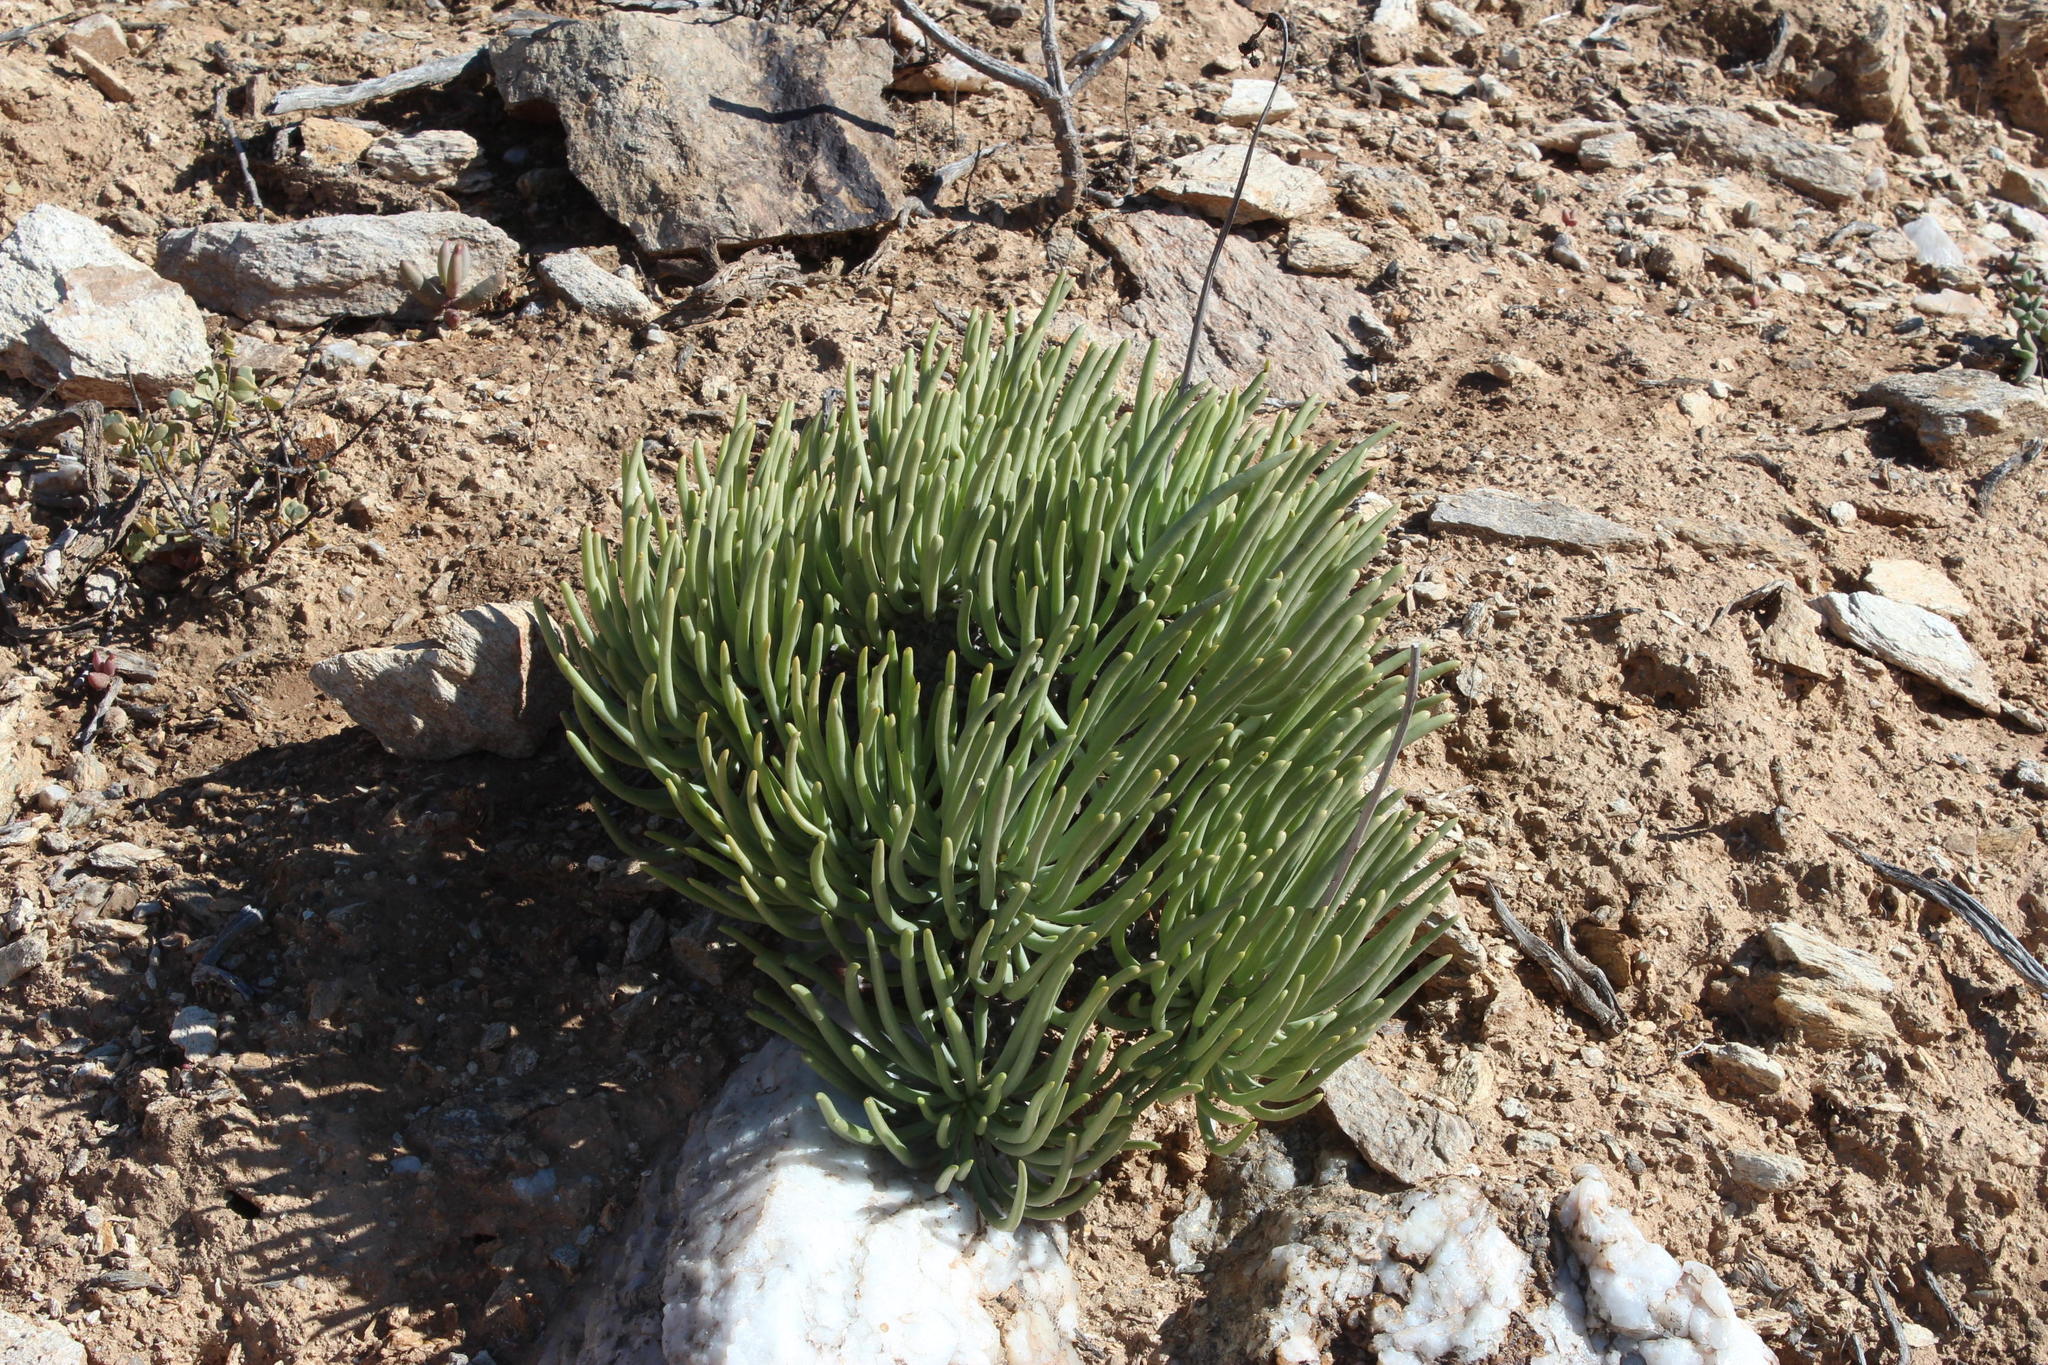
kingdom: Plantae
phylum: Tracheophyta
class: Magnoliopsida
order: Saxifragales
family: Crassulaceae
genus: Tylecodon
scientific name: Tylecodon wallichii
